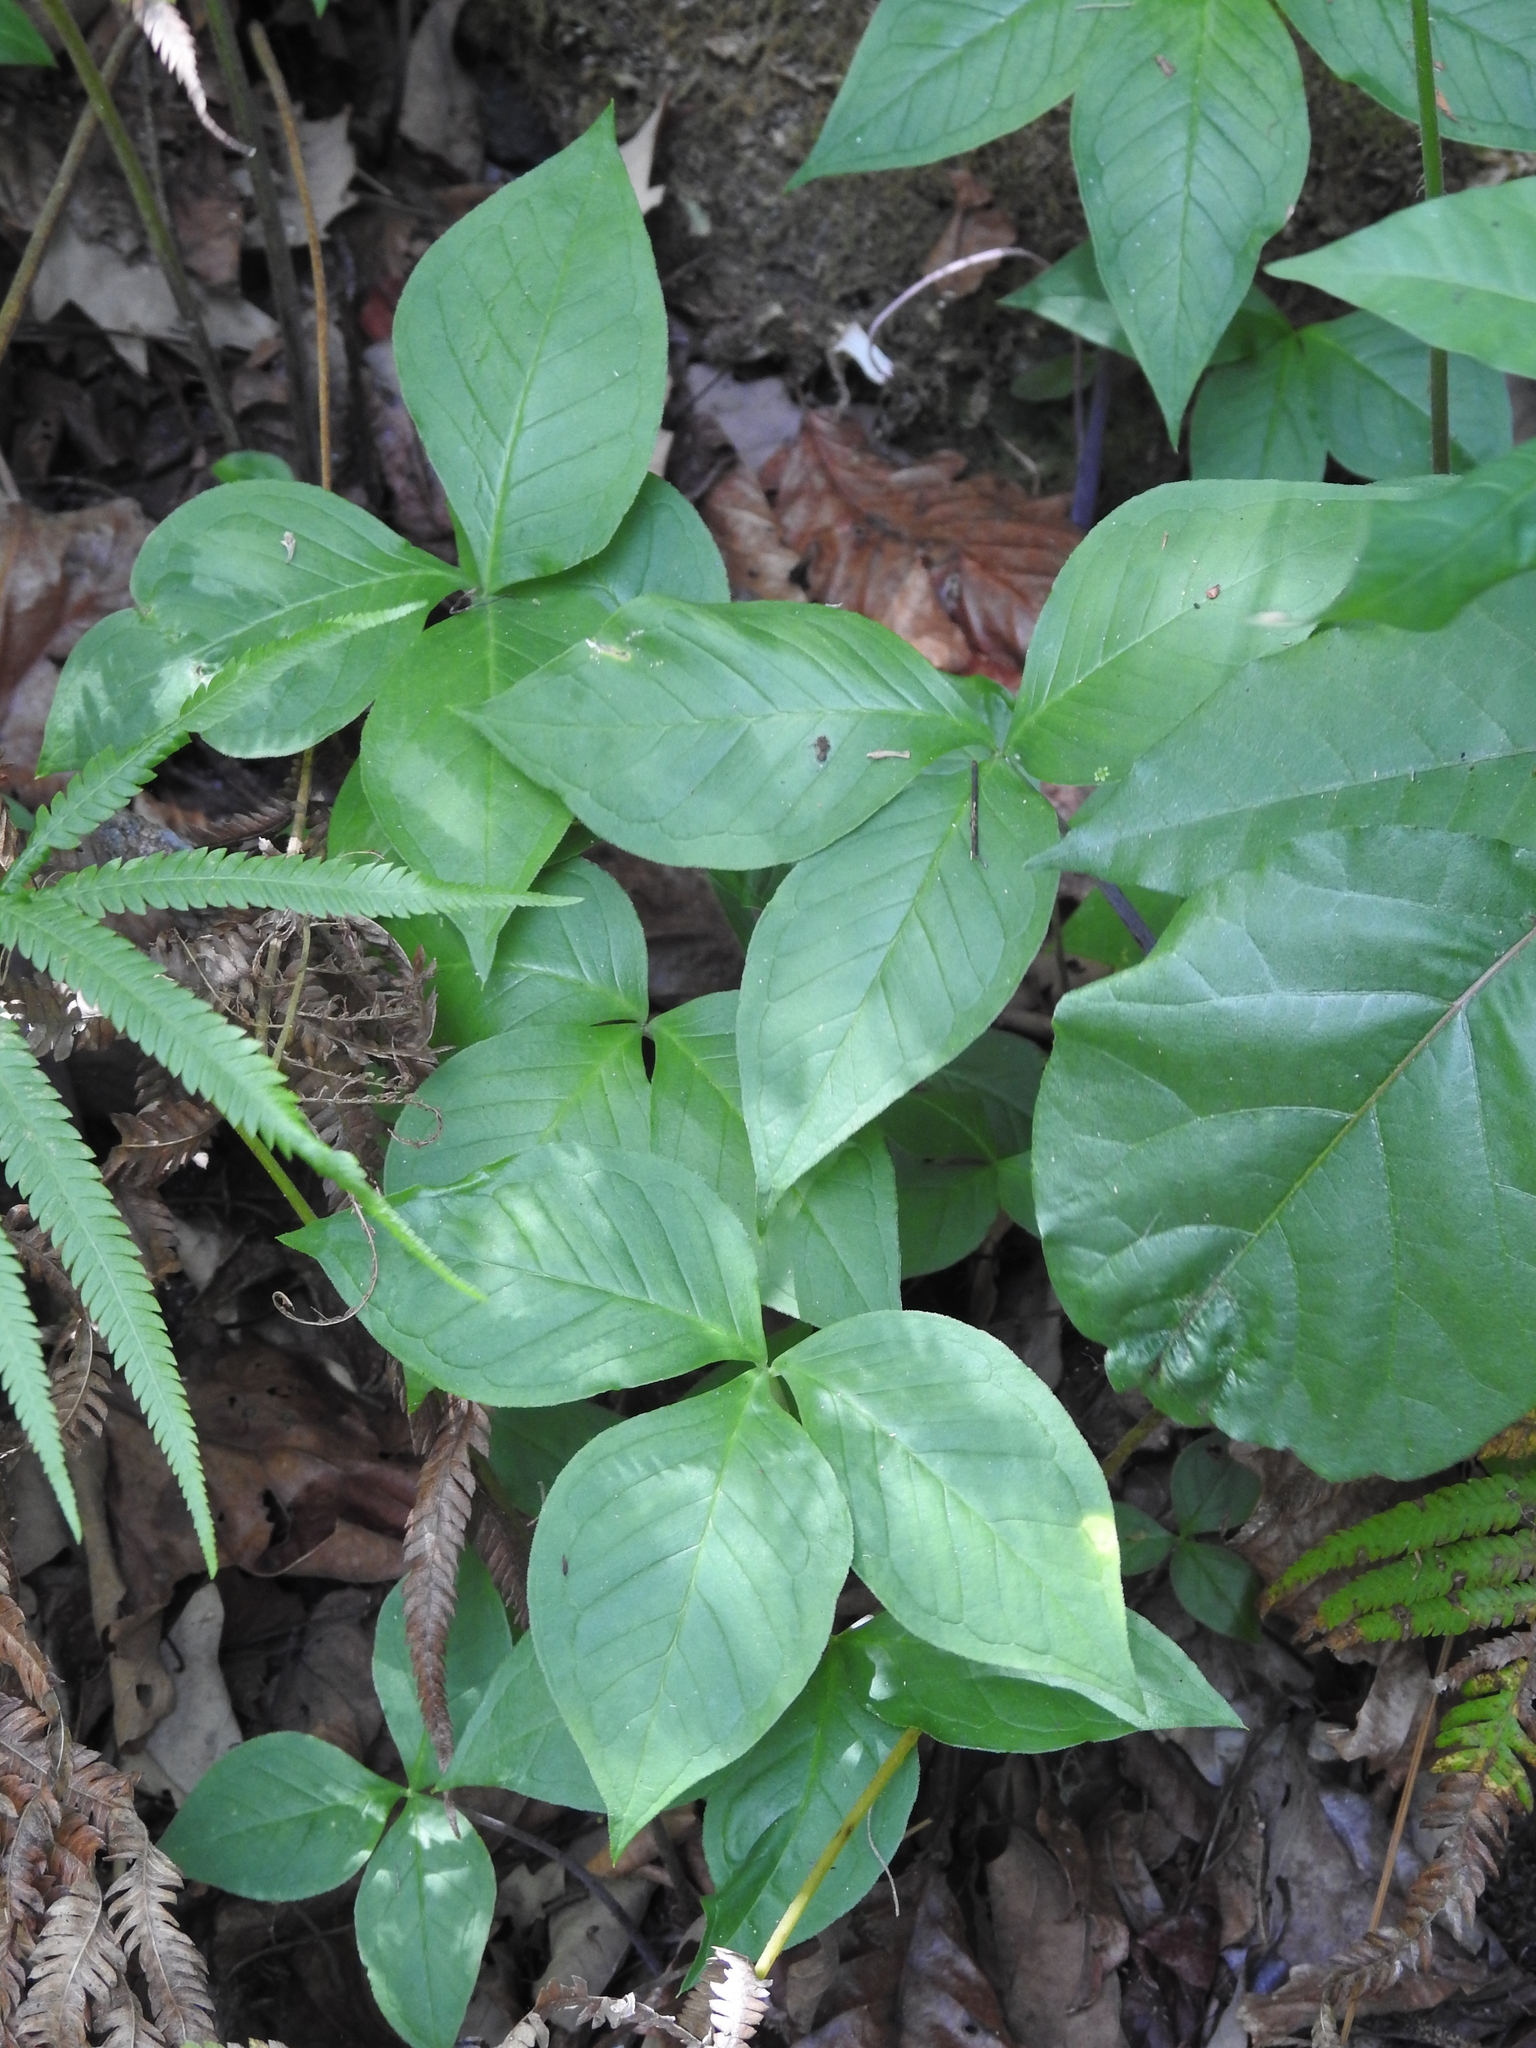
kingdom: Plantae
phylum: Tracheophyta
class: Liliopsida
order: Alismatales
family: Araceae
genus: Arisaema
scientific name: Arisaema acuminatum
